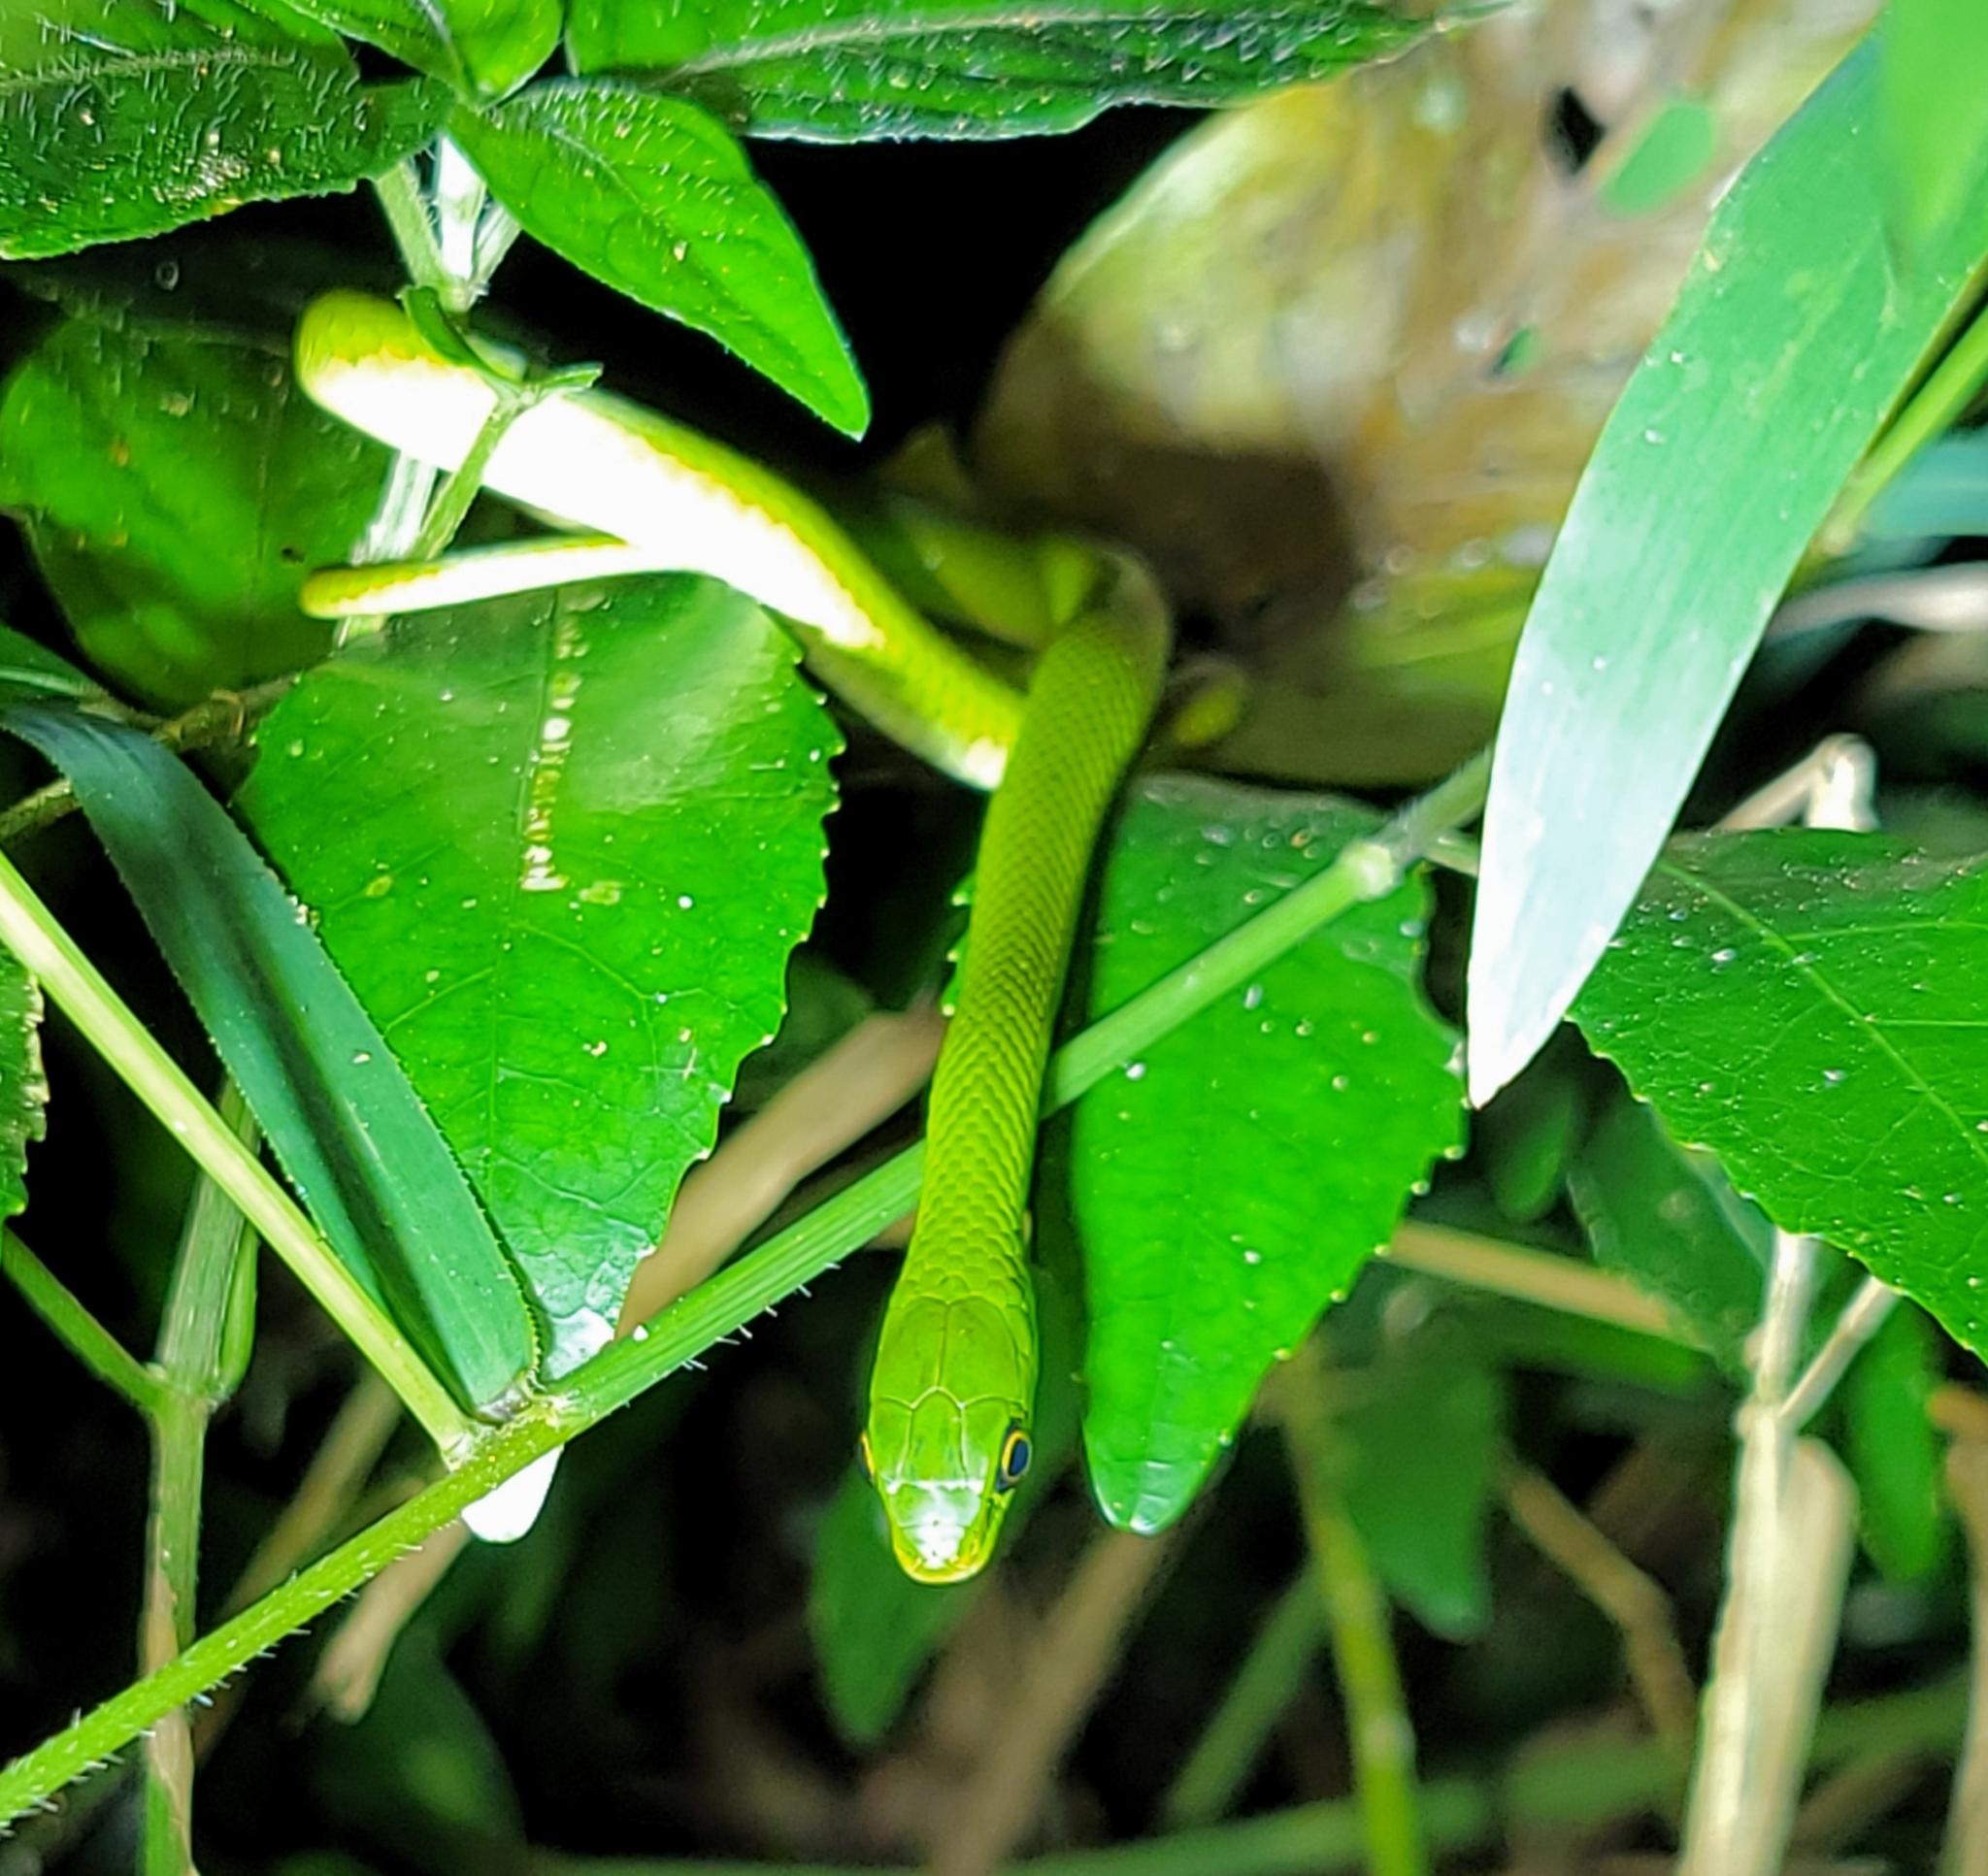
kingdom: Animalia
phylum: Chordata
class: Squamata
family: Colubridae
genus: Philothamnus
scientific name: Philothamnus hoplogaster
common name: Green water snake
